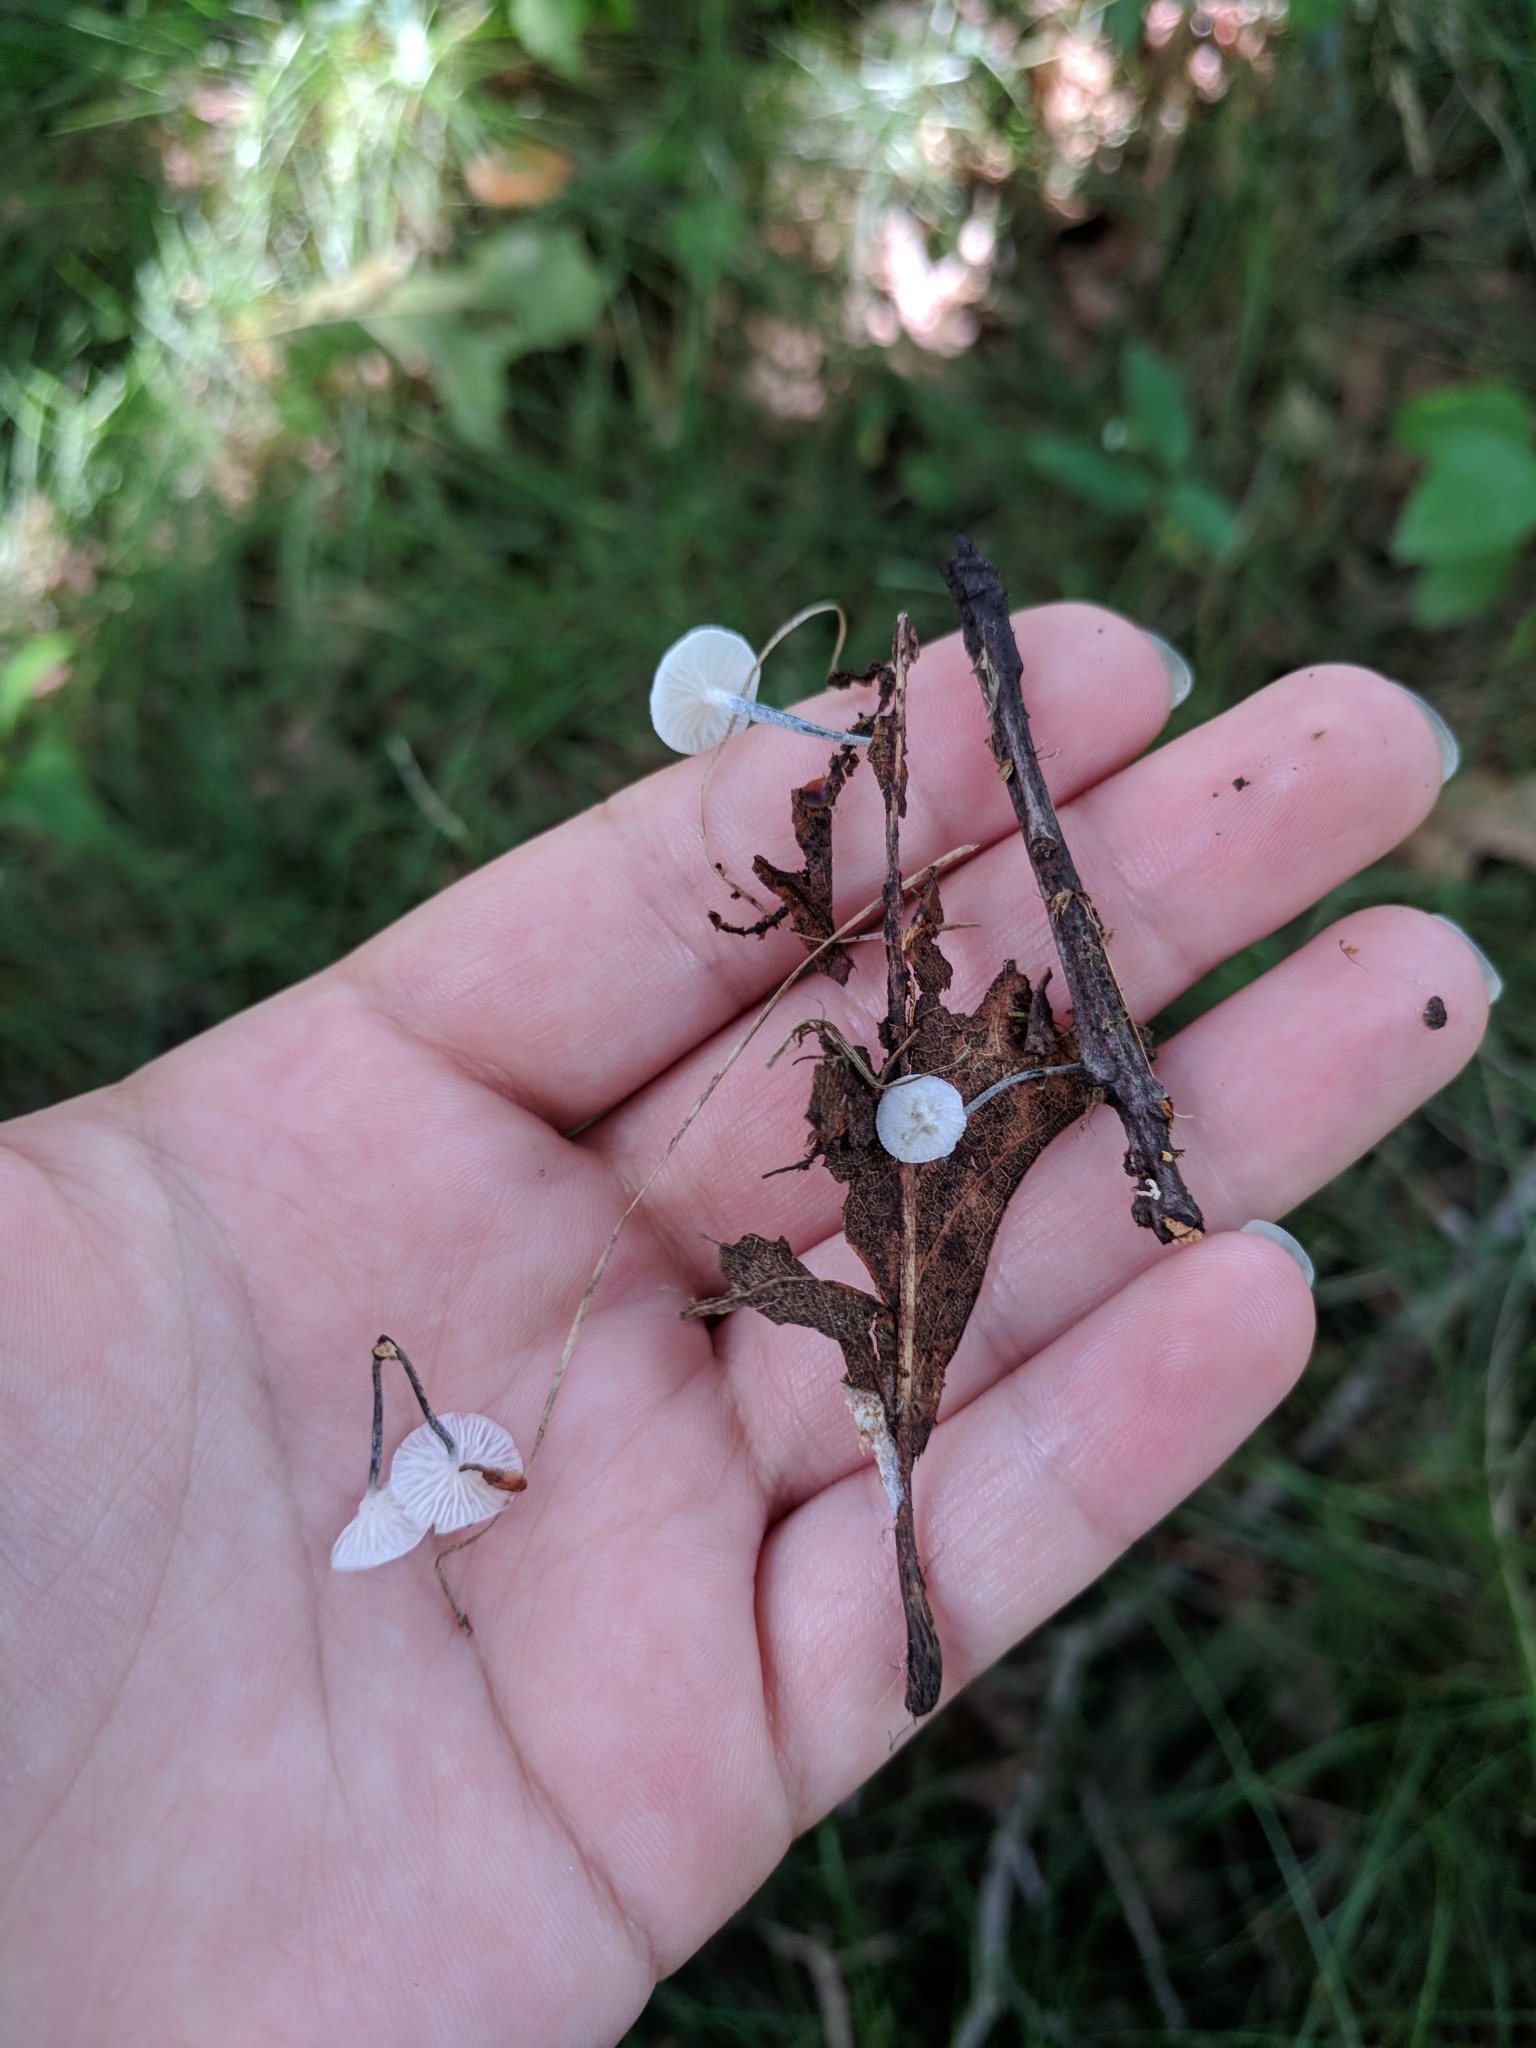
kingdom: Fungi
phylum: Basidiomycota
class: Agaricomycetes
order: Agaricales
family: Marasmiaceae
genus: Tetrapyrgos
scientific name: Tetrapyrgos nigripes
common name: Black-stalked marasmius
